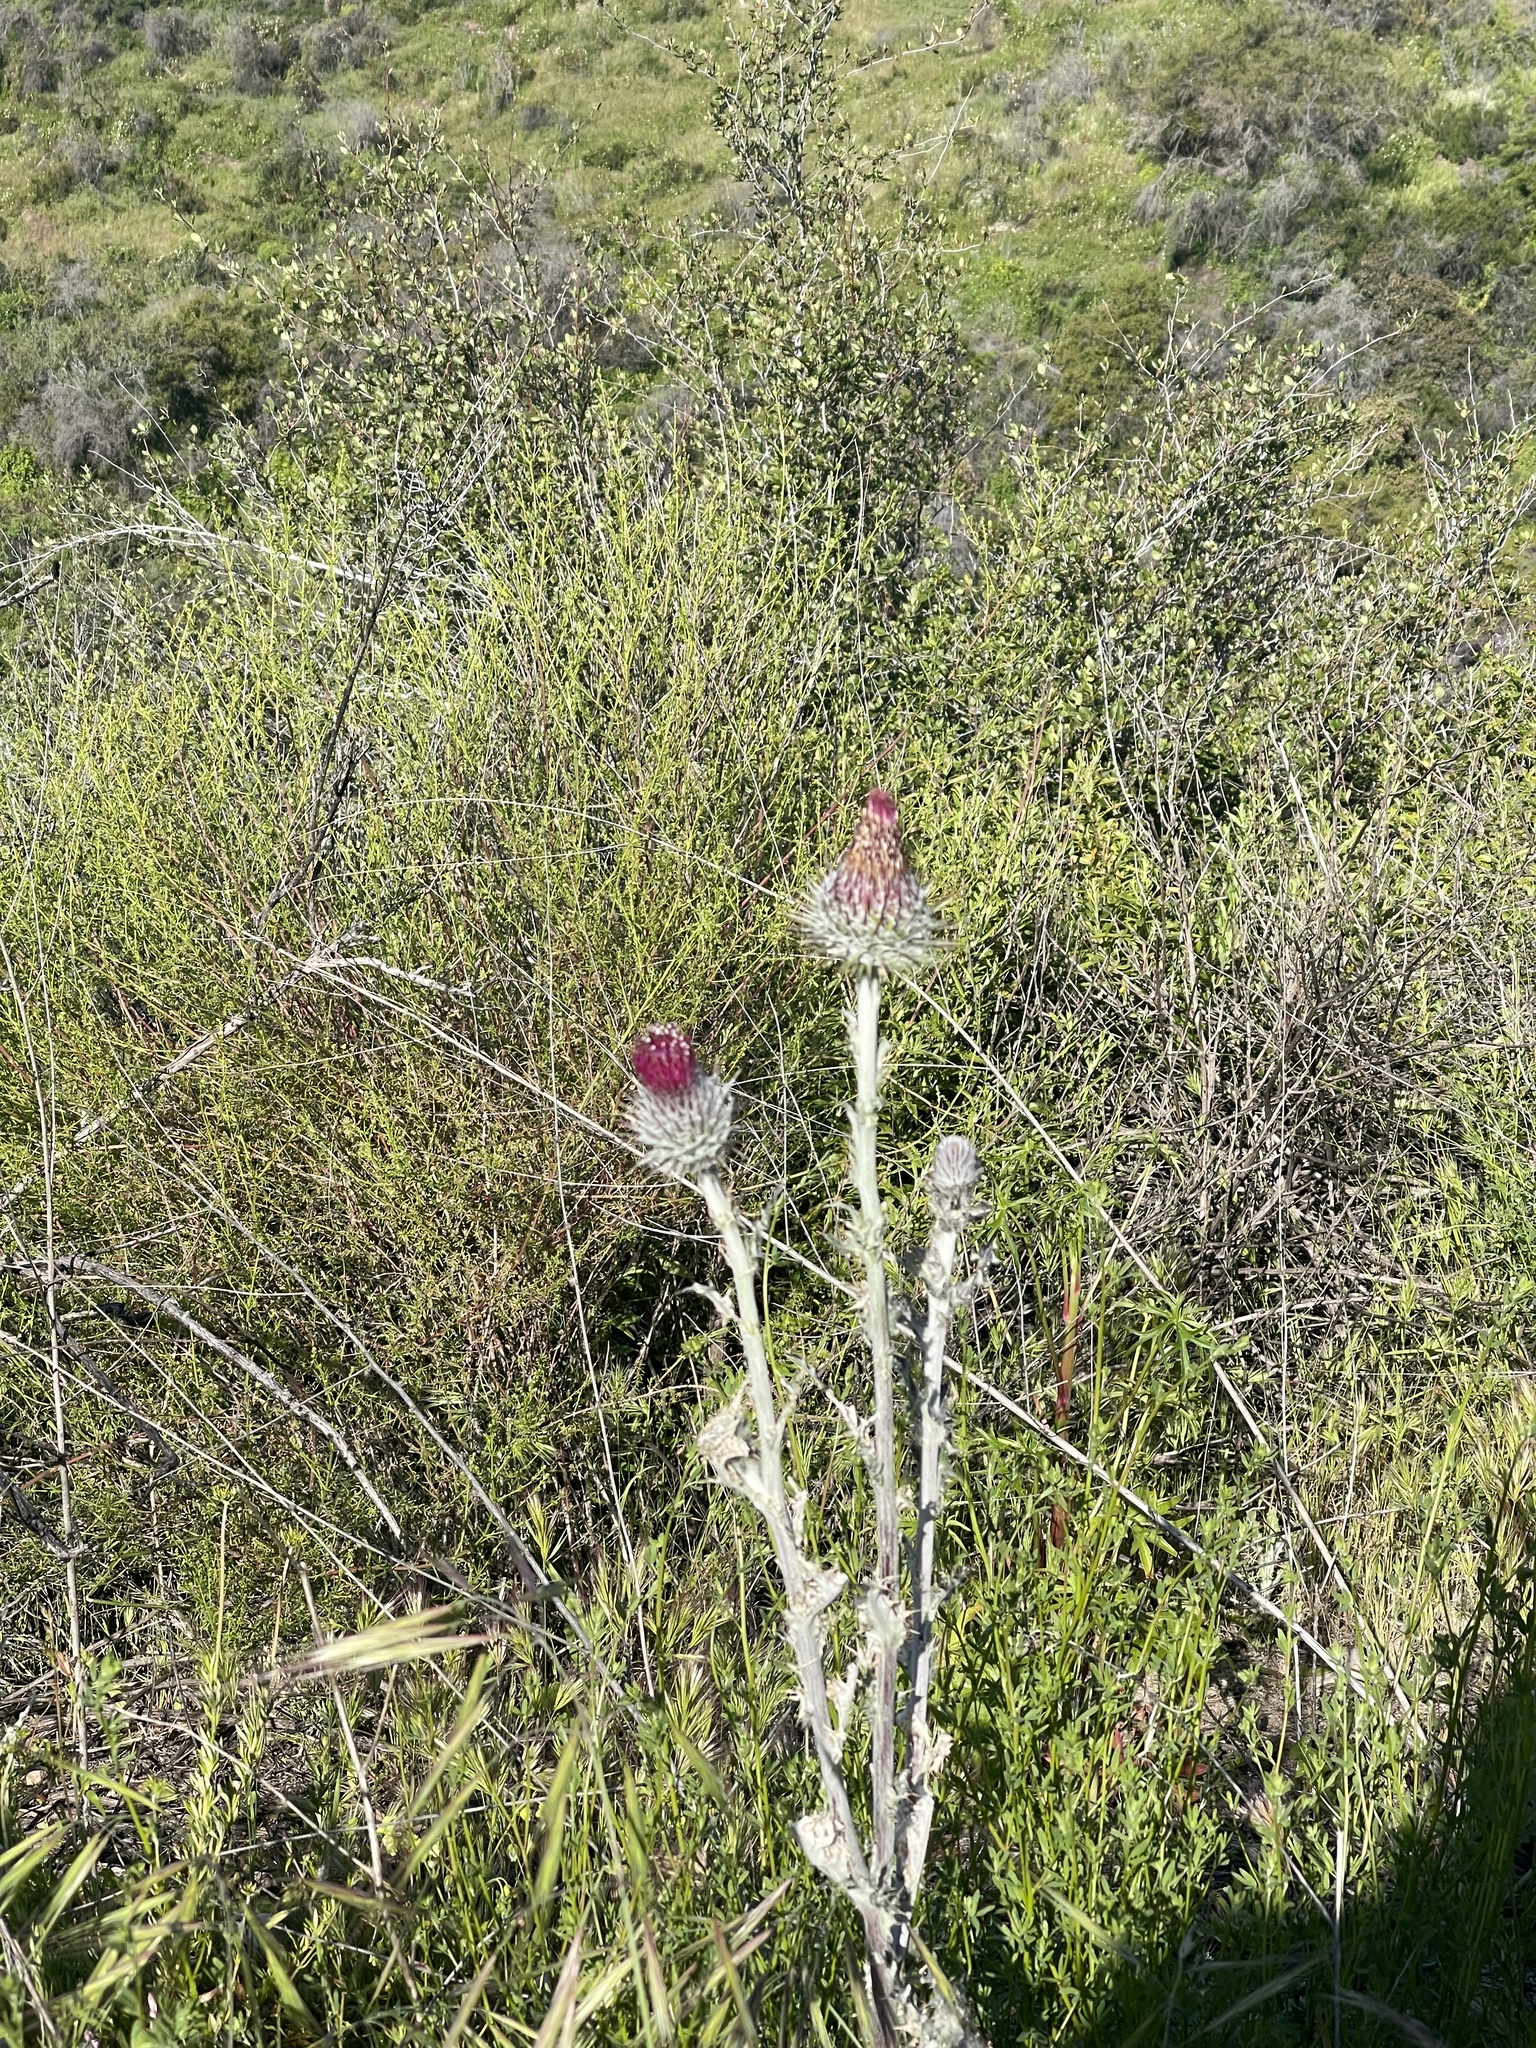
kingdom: Plantae
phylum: Tracheophyta
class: Magnoliopsida
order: Asterales
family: Asteraceae
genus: Cirsium
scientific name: Cirsium occidentale
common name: Western thistle
